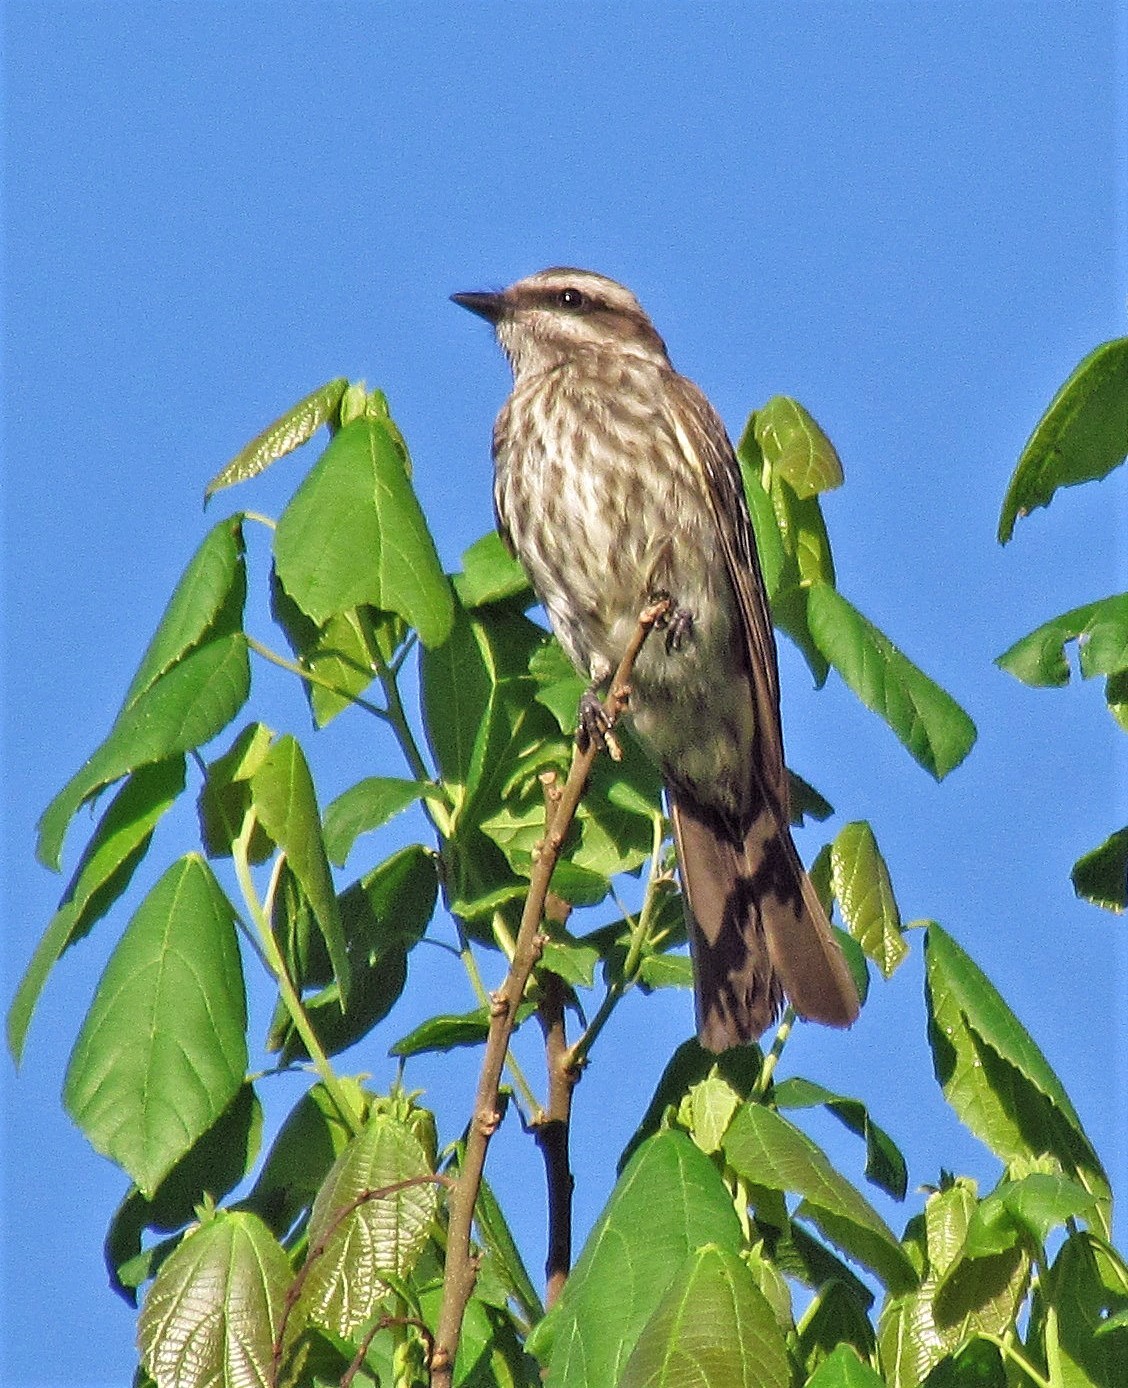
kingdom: Animalia
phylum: Chordata
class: Aves
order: Passeriformes
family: Tyrannidae
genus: Legatus
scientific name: Legatus leucophaius
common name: Piratic flycatcher
